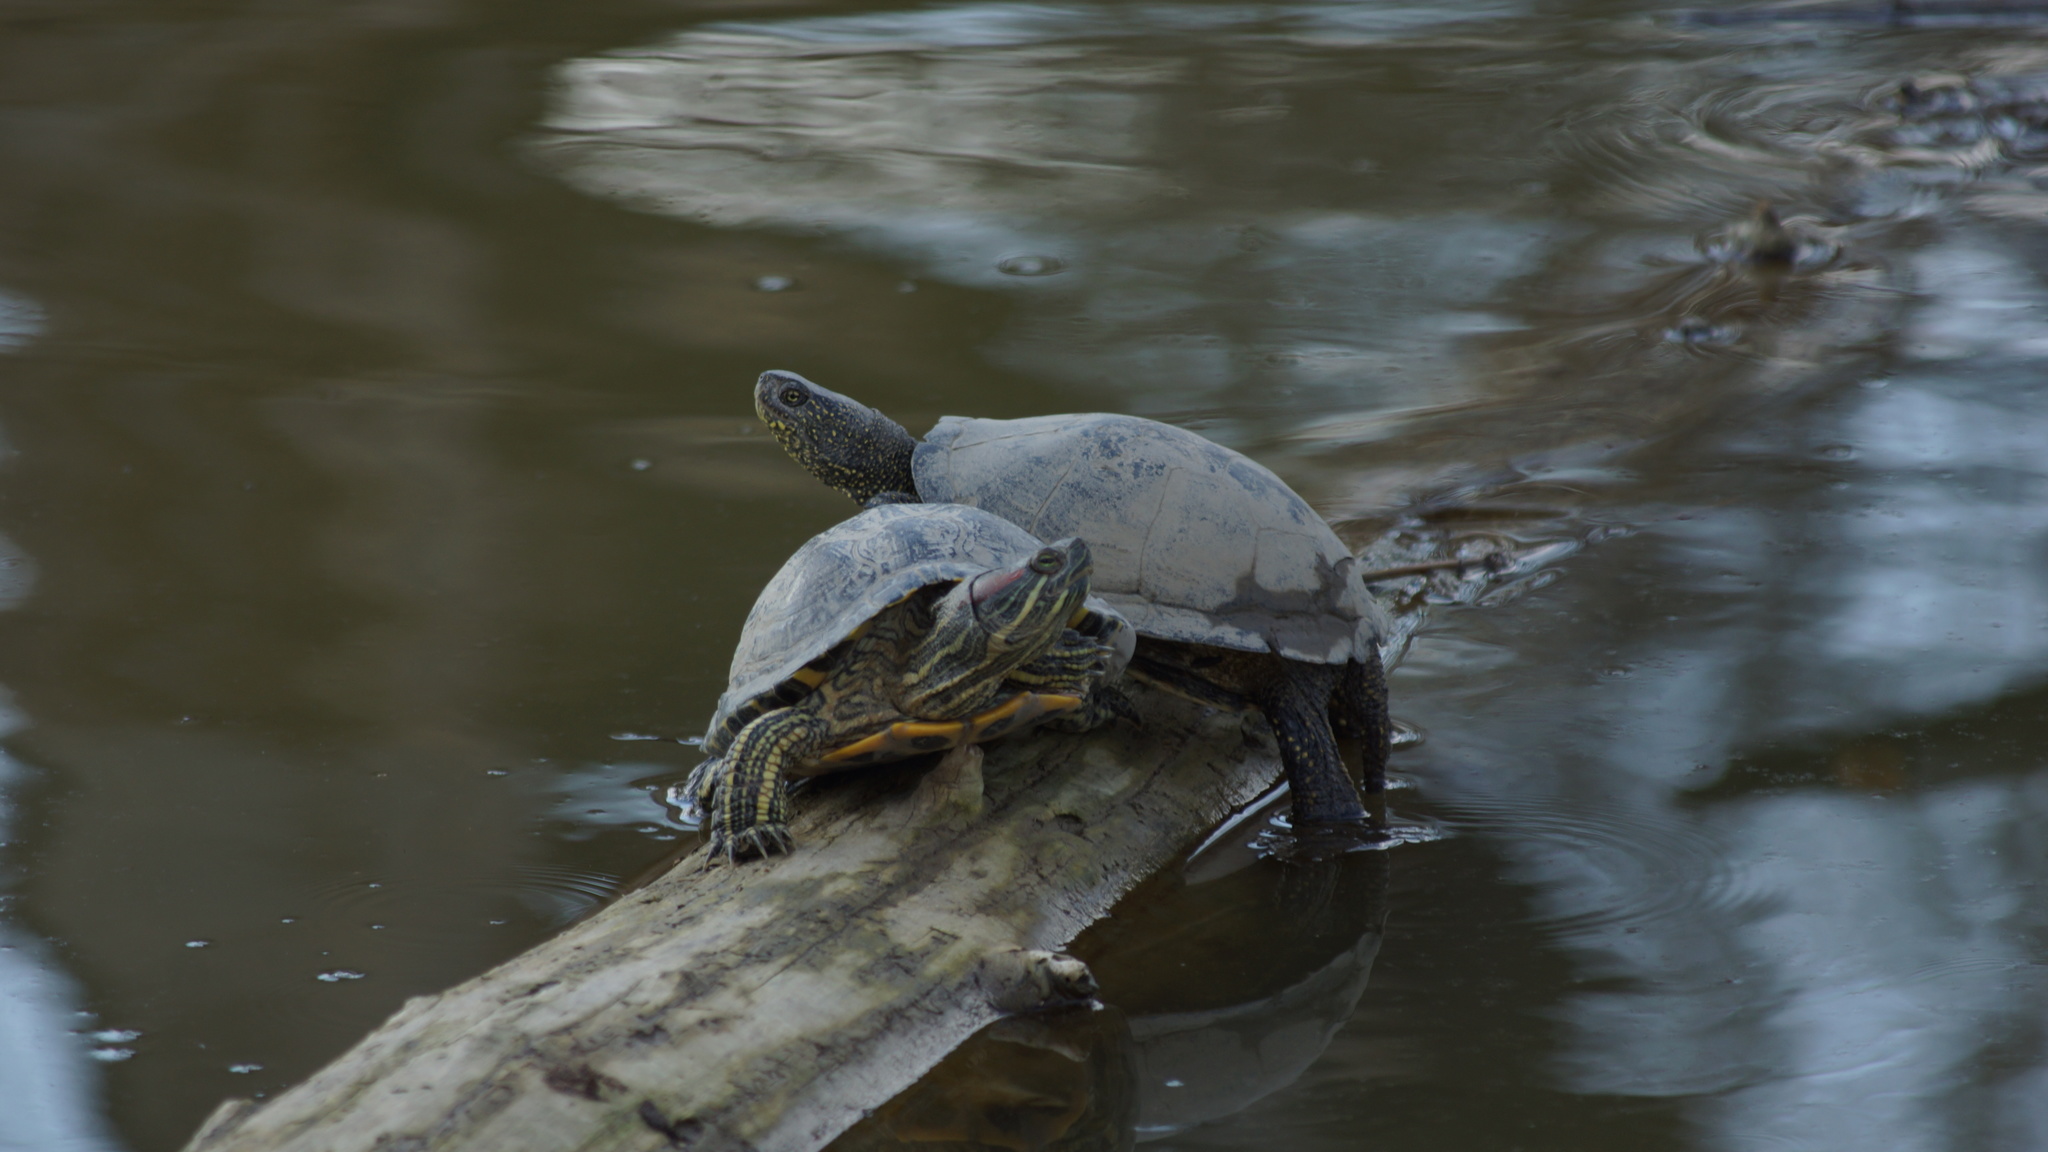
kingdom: Animalia
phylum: Chordata
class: Testudines
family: Emydidae
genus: Emys
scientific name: Emys orbicularis
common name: European pond turtle
